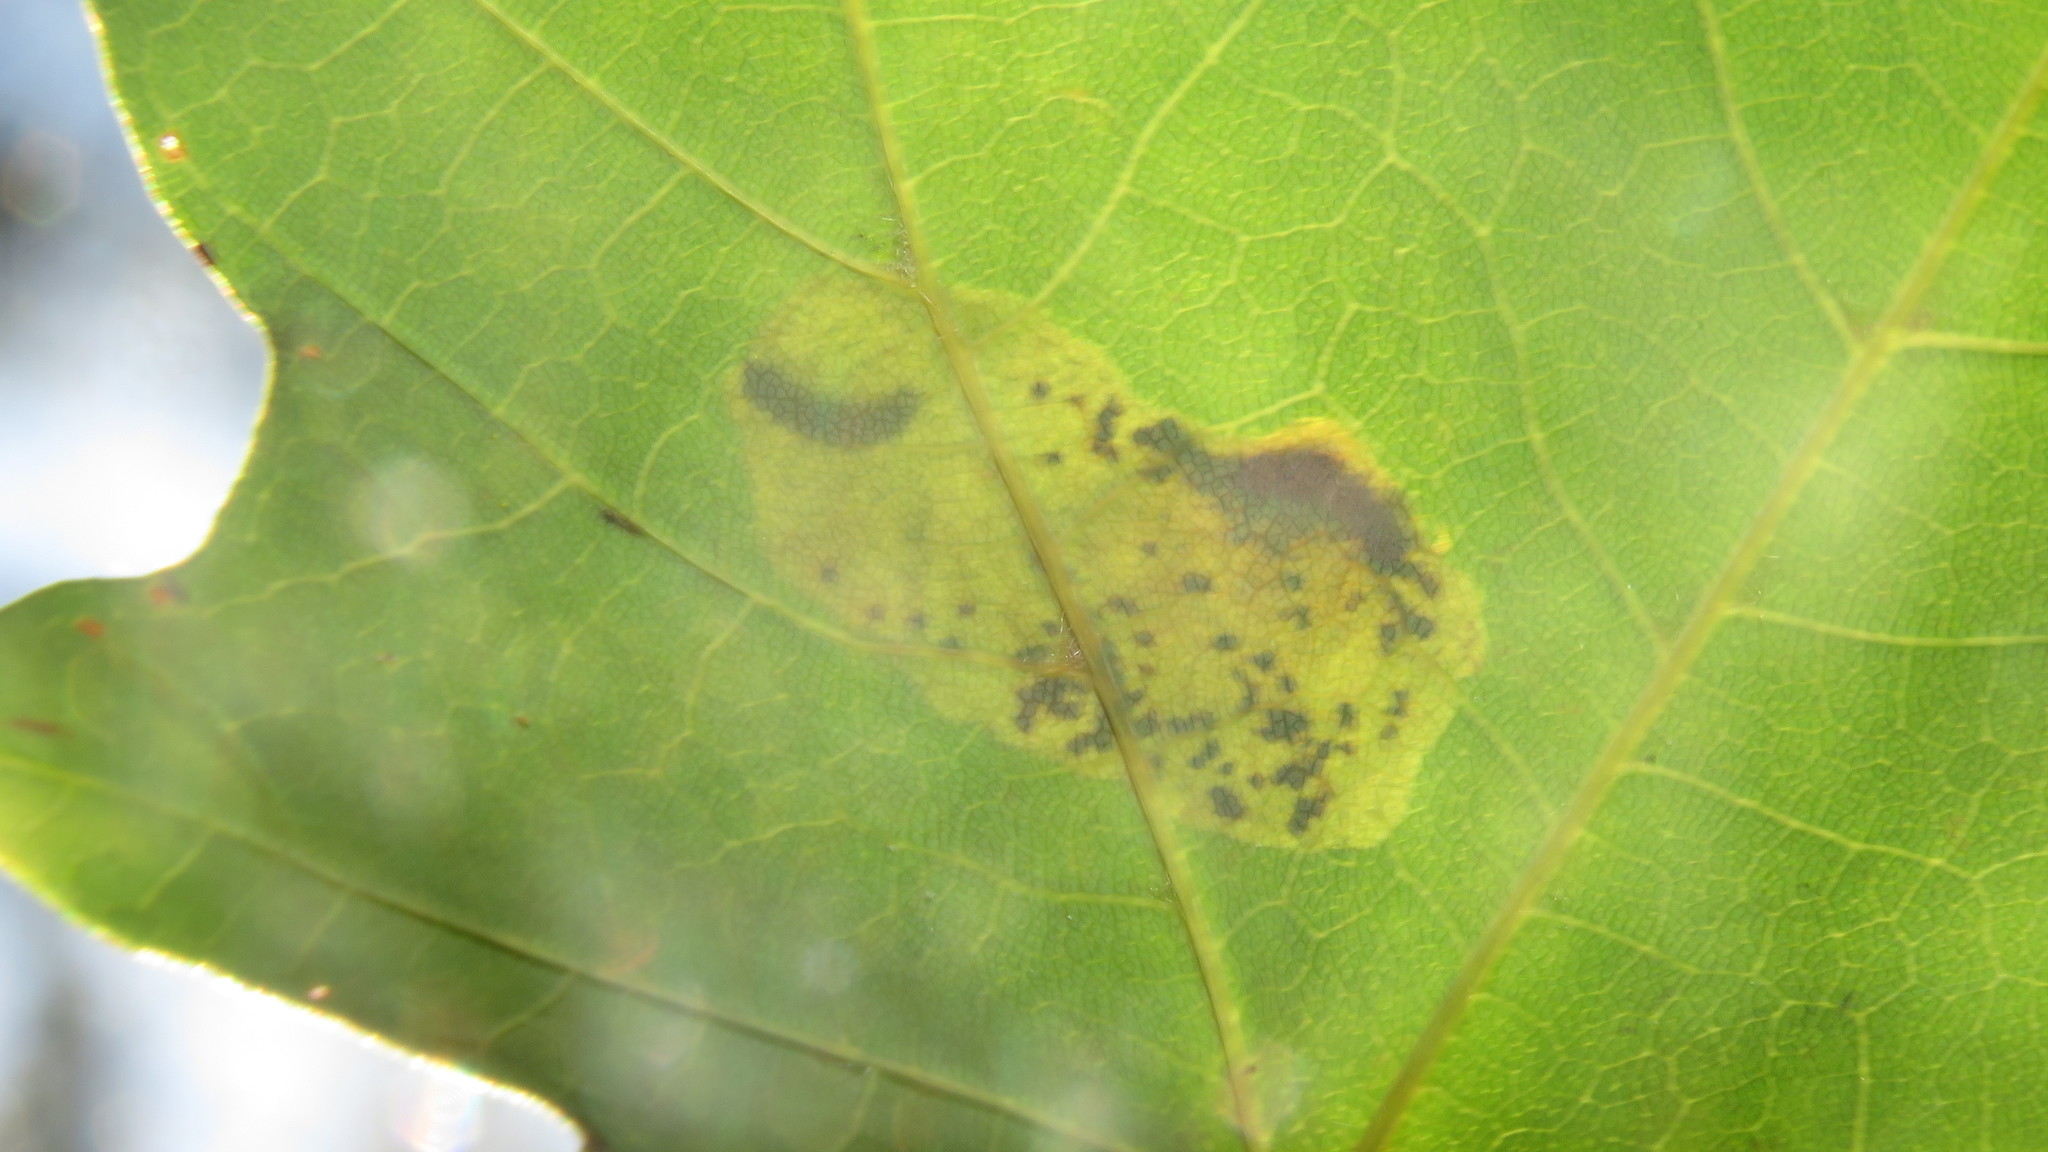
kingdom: Animalia
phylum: Arthropoda
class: Insecta
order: Lepidoptera
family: Gracillariidae
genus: Cameraria
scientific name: Cameraria aceriella
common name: Maple leafblotch miner
